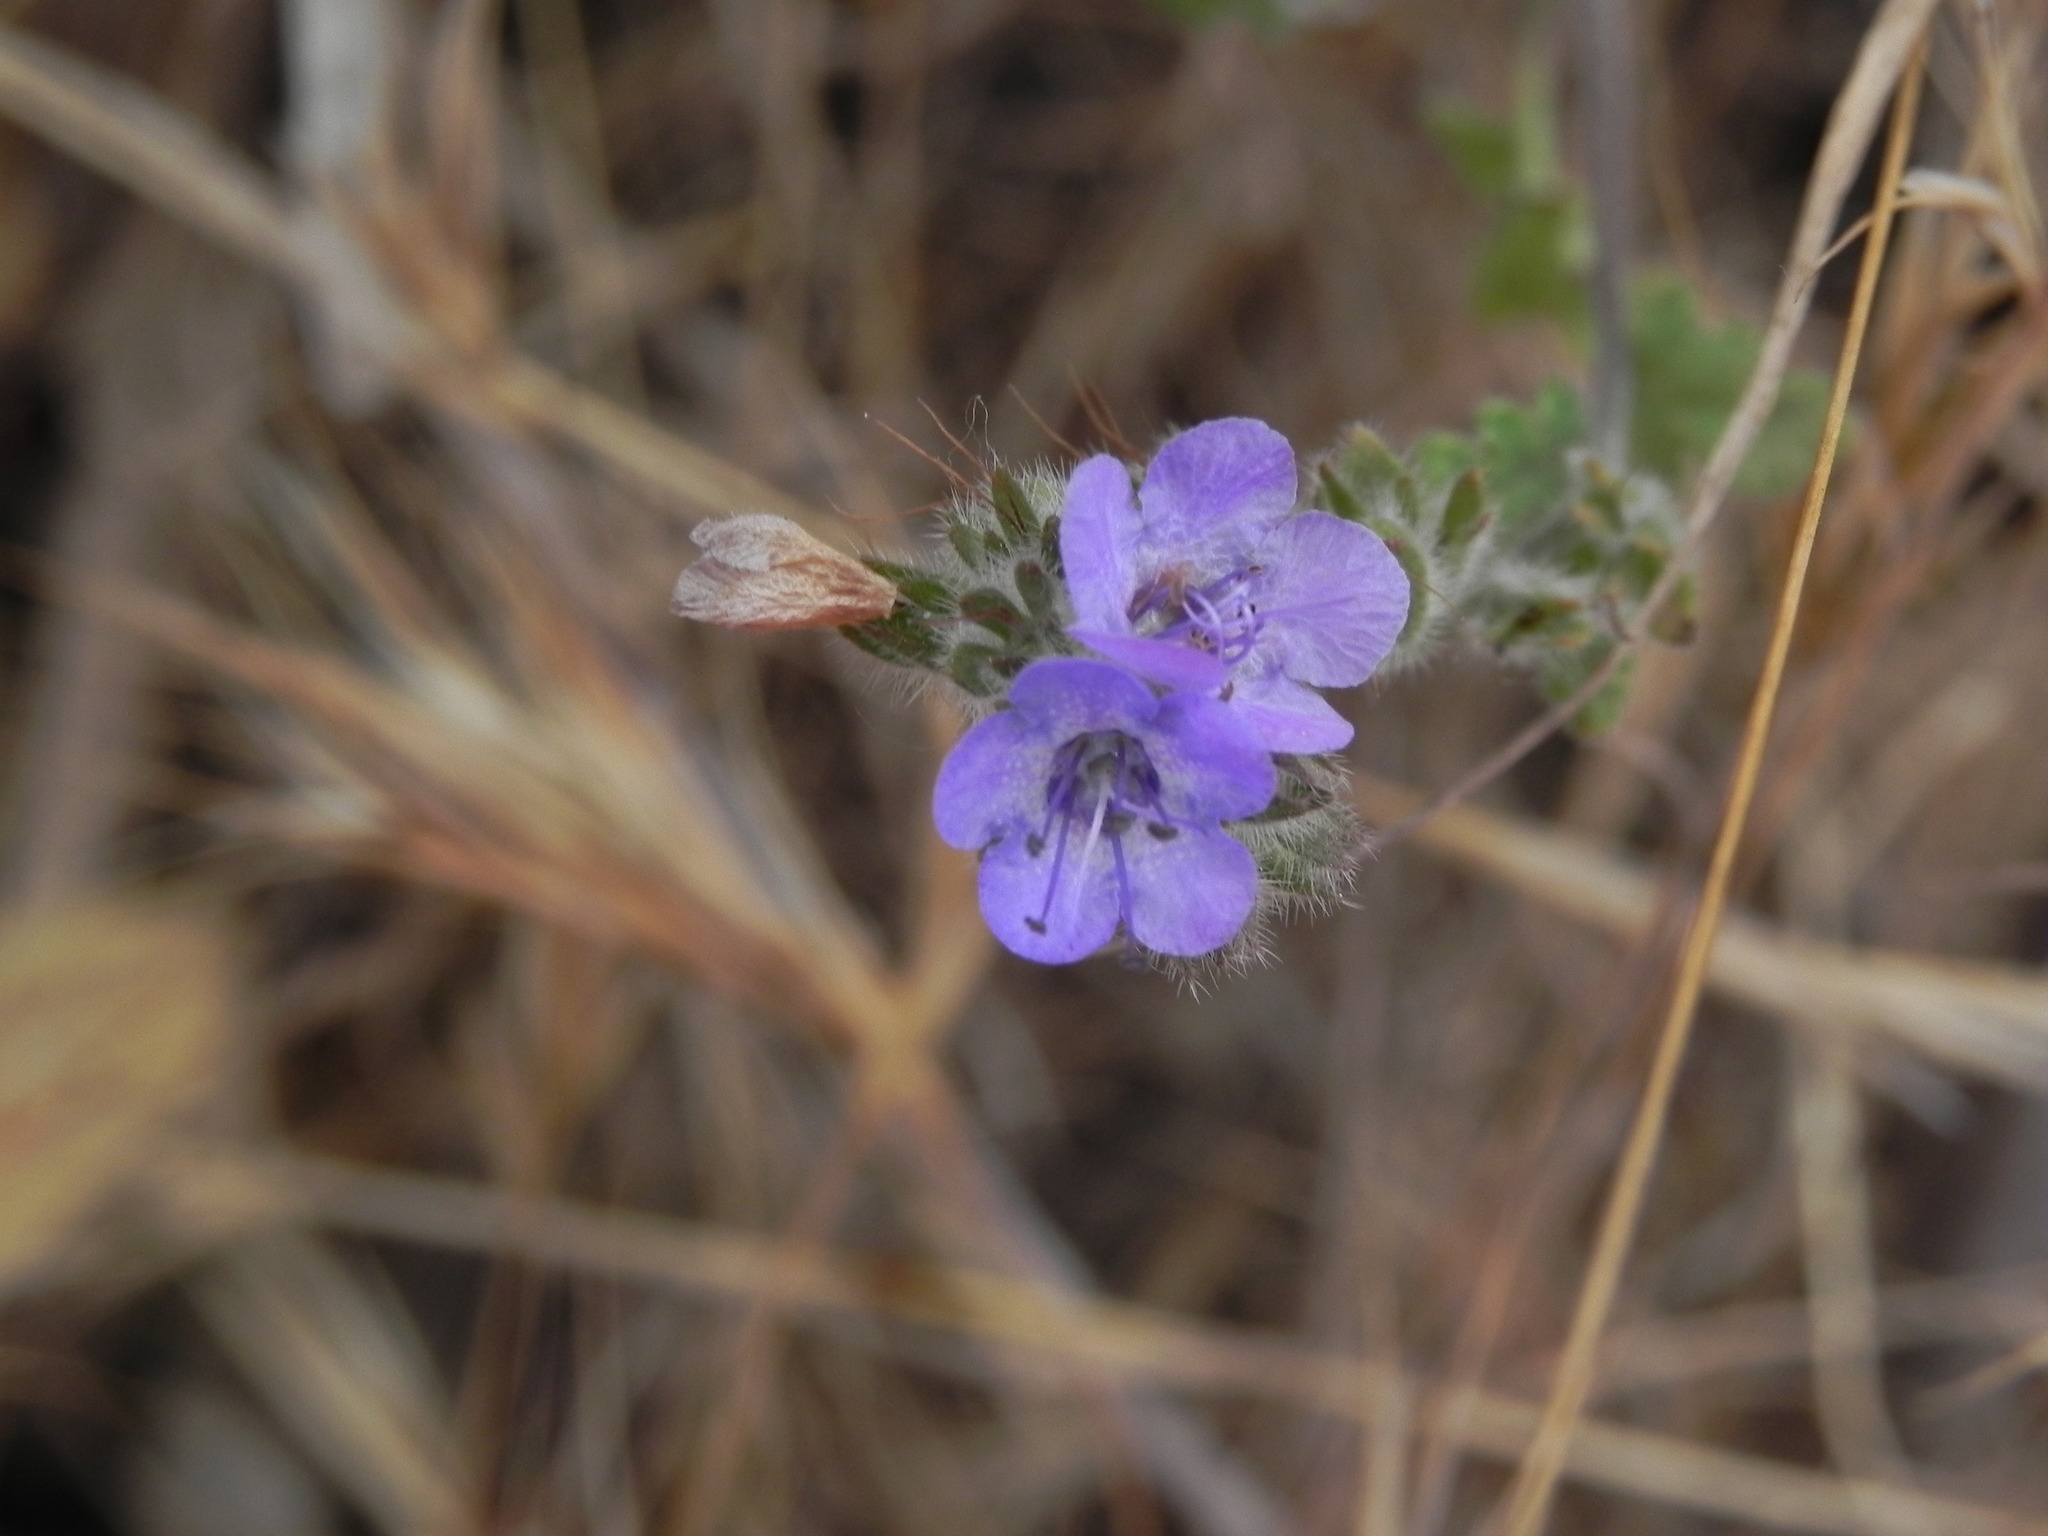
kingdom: Plantae
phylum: Tracheophyta
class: Magnoliopsida
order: Boraginales
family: Hydrophyllaceae
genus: Phacelia
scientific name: Phacelia distans
